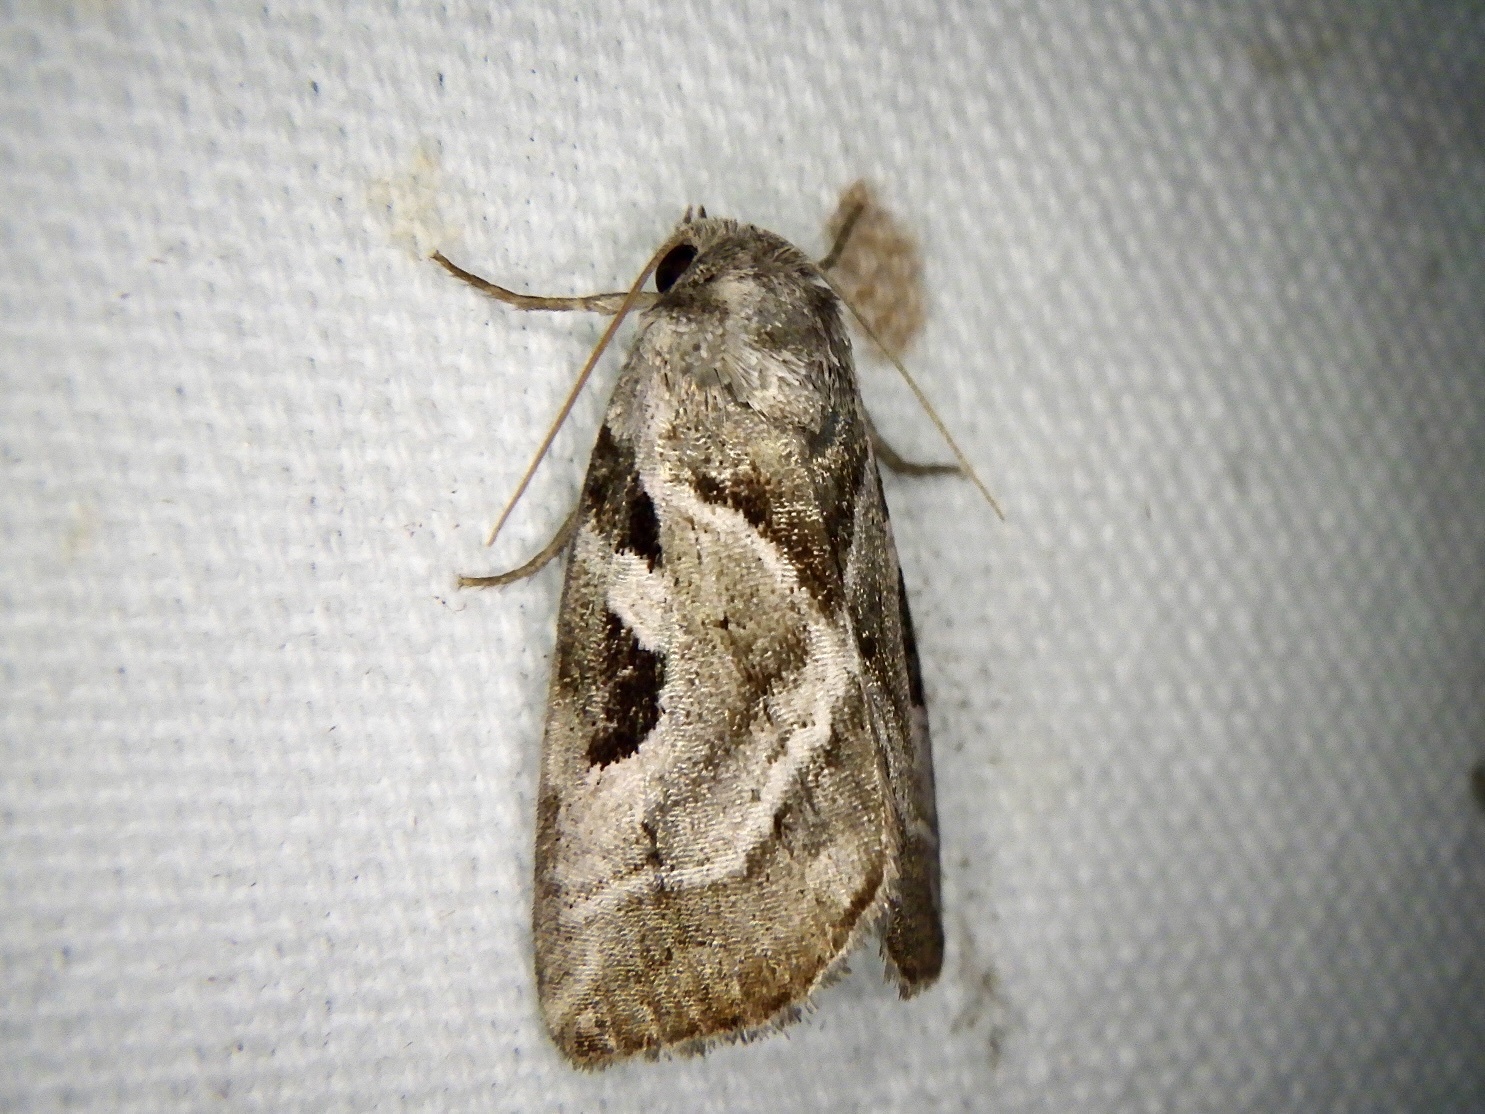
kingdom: Animalia
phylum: Arthropoda
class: Insecta
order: Lepidoptera
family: Noctuidae
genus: Eucarta
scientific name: Eucarta virgo
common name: Silvery gem
